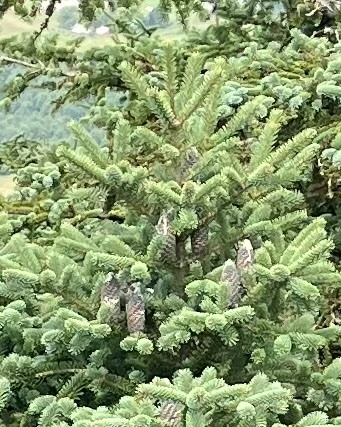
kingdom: Plantae
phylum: Tracheophyta
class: Pinopsida
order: Pinales
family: Pinaceae
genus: Abies
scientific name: Abies balsamea
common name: Balsam fir
